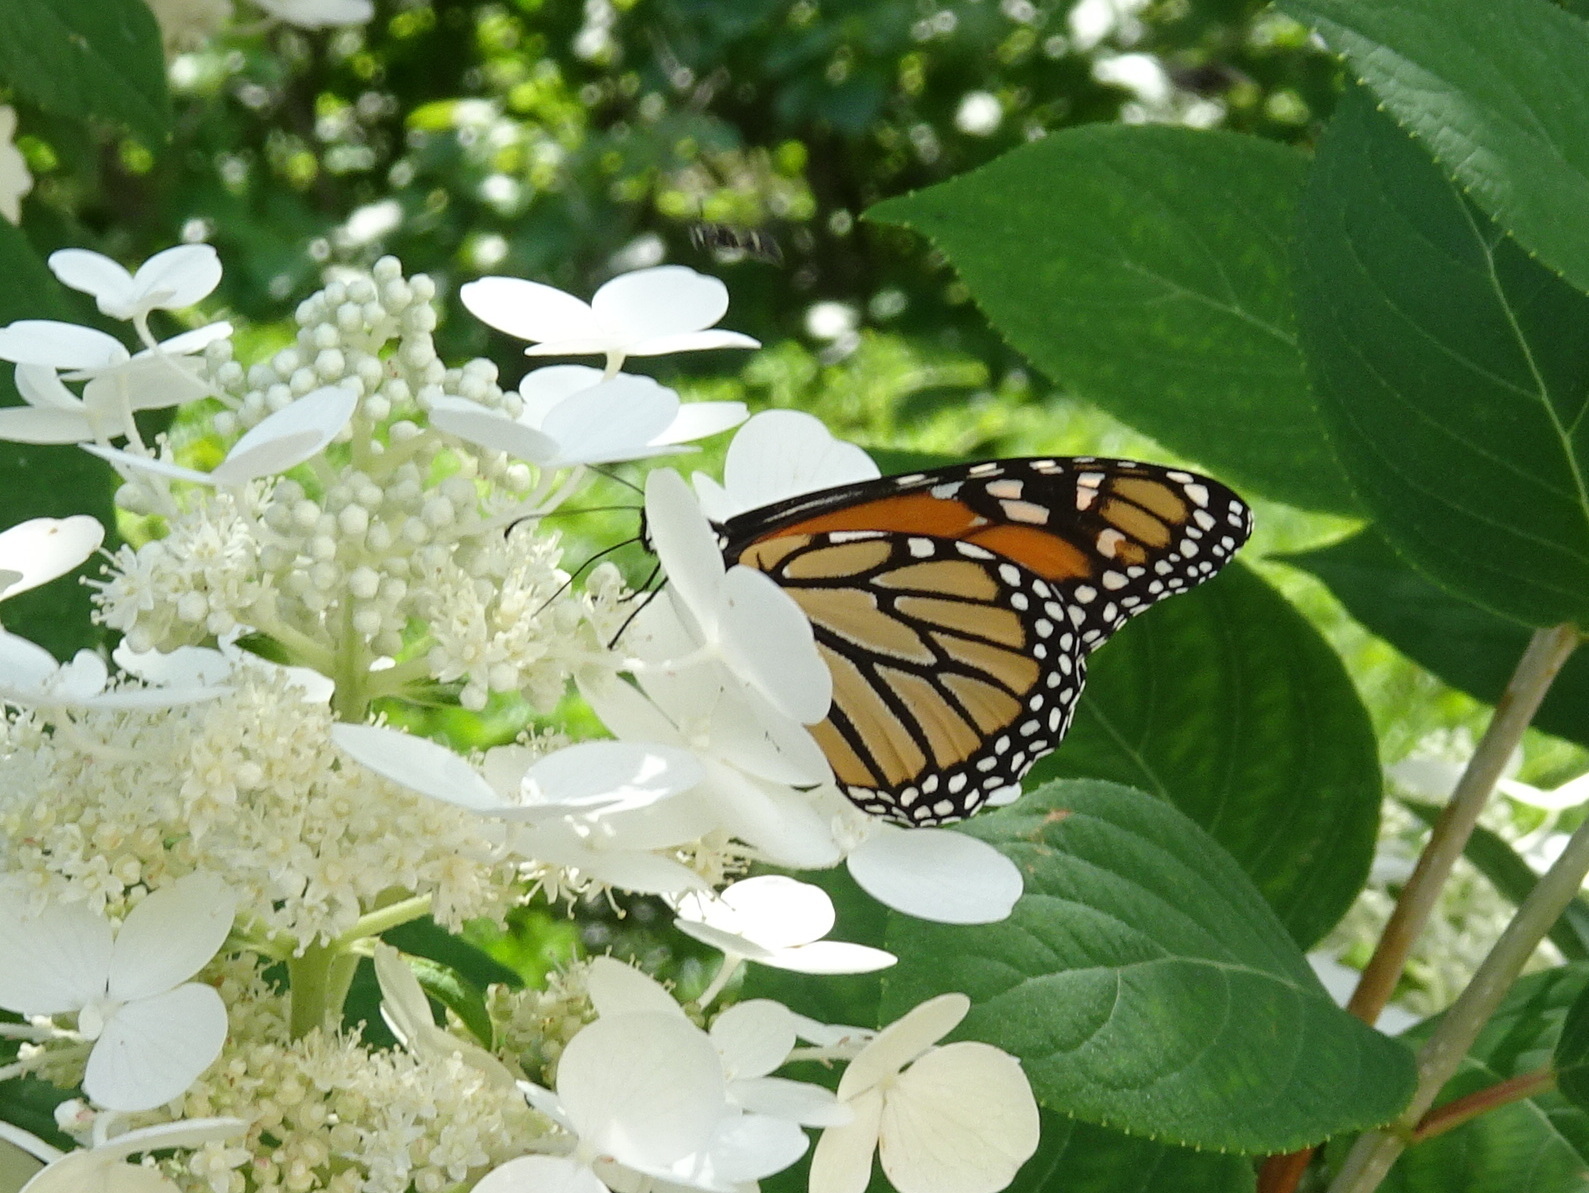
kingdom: Animalia
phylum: Arthropoda
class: Insecta
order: Lepidoptera
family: Nymphalidae
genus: Danaus
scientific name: Danaus plexippus
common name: Monarch
